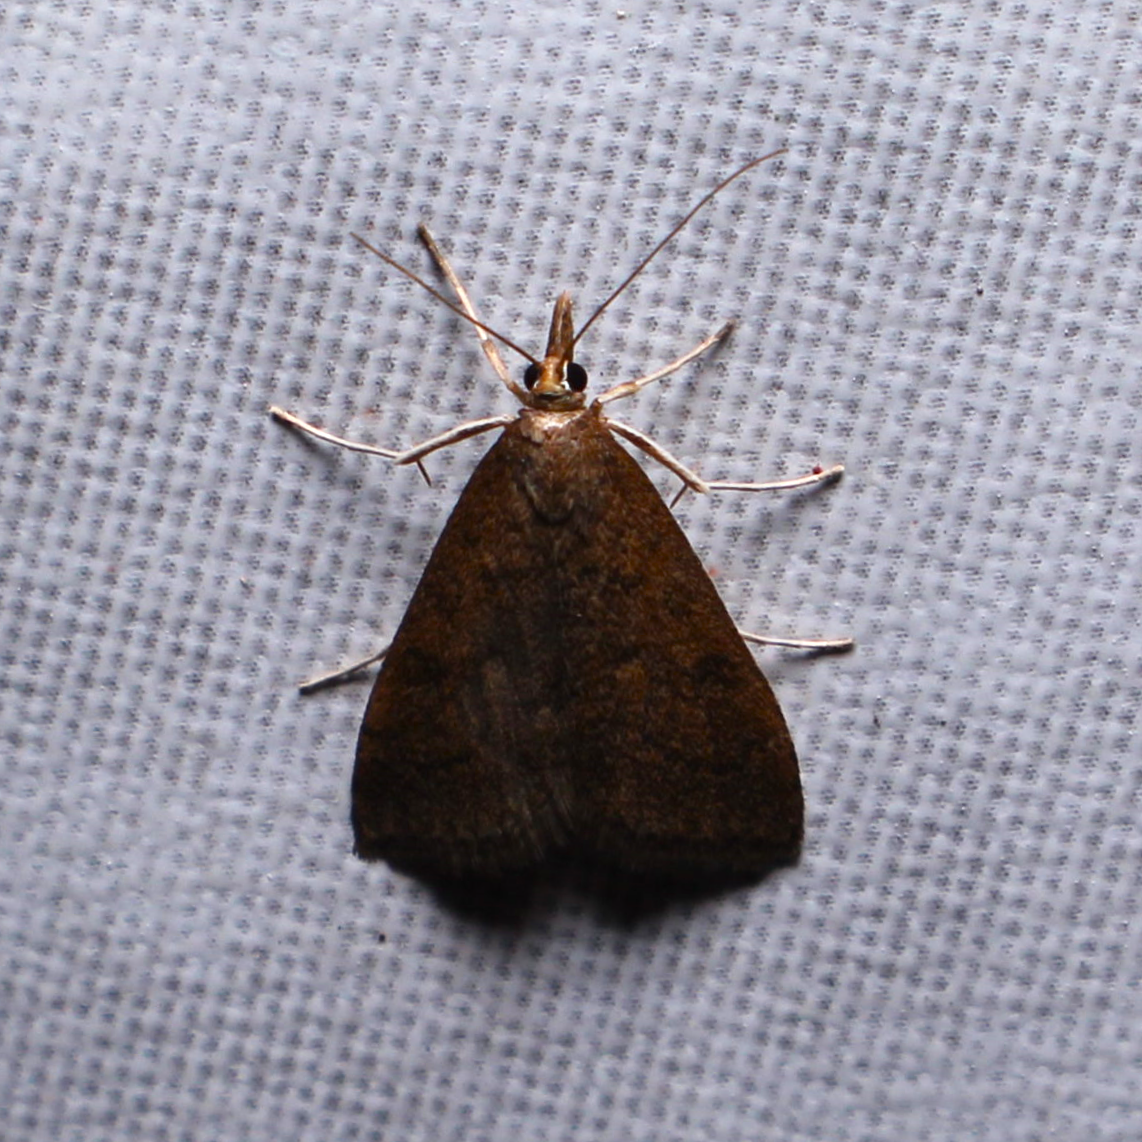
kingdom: Animalia
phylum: Arthropoda
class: Insecta
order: Lepidoptera
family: Crambidae
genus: Udea
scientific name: Udea rubigalis
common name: Celery leaftier moth
